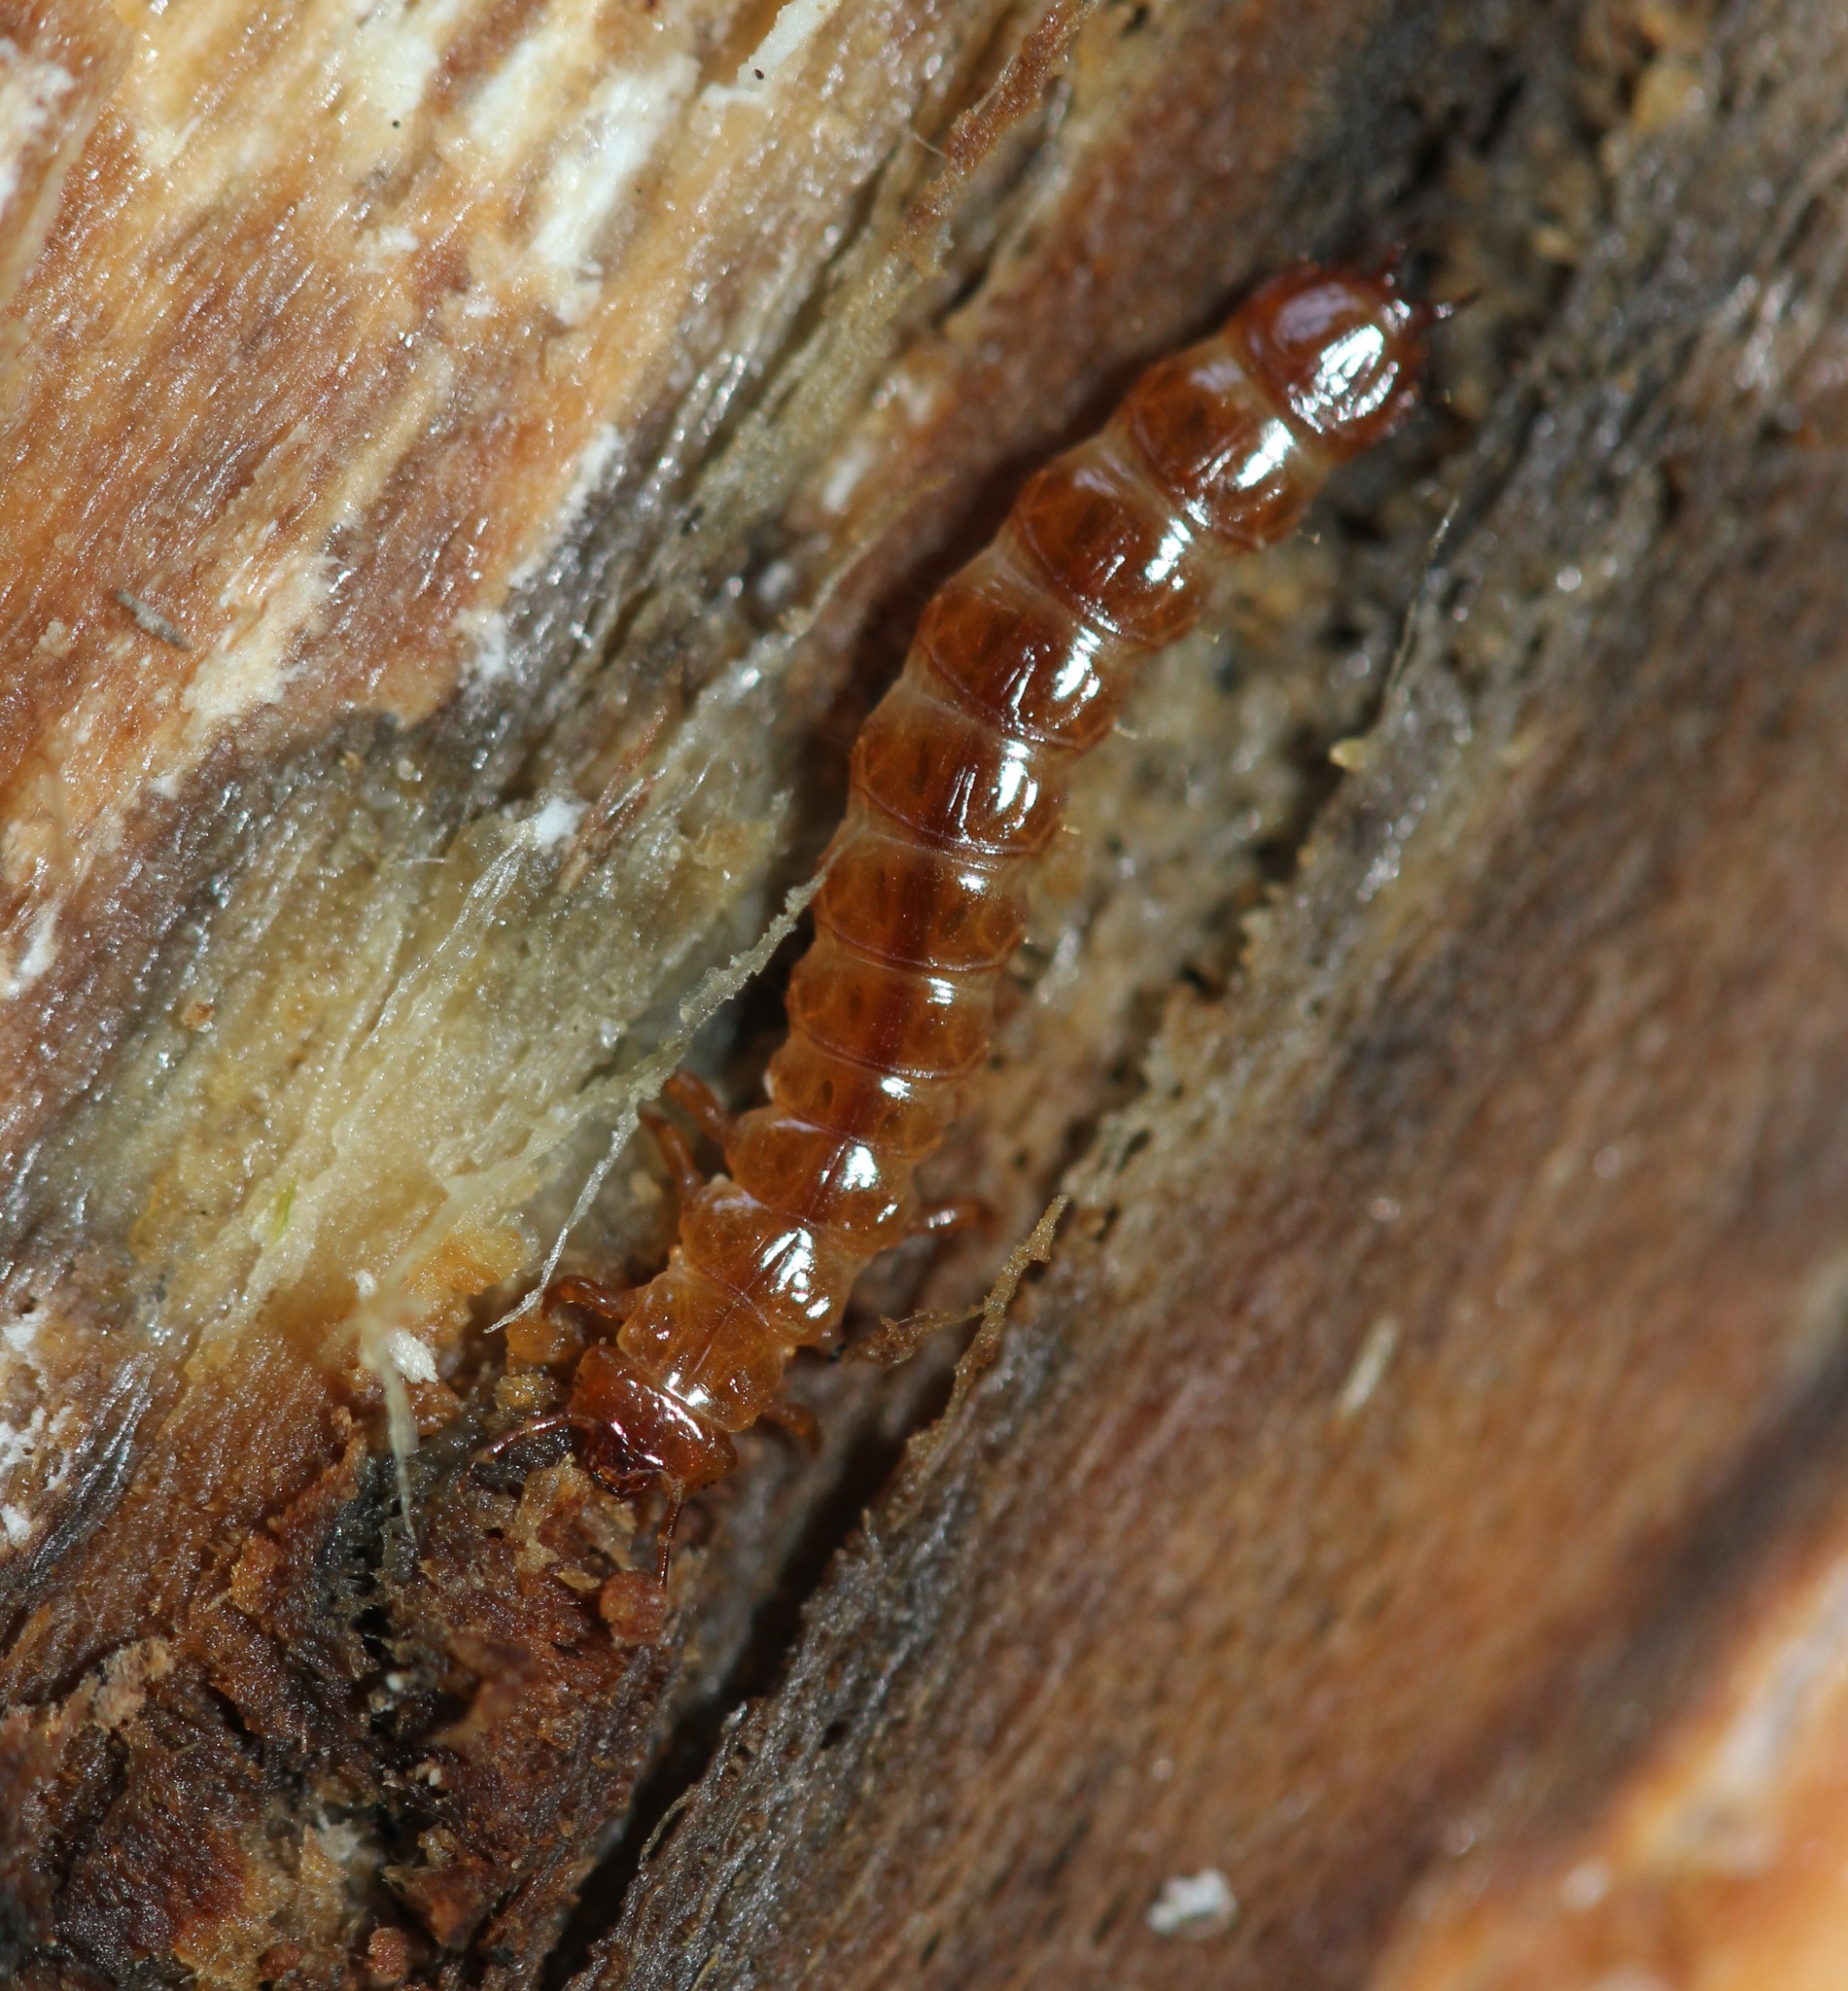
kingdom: Animalia
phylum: Arthropoda
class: Insecta
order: Coleoptera
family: Cucujidae
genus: Cucujus
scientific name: Cucujus clavipes
